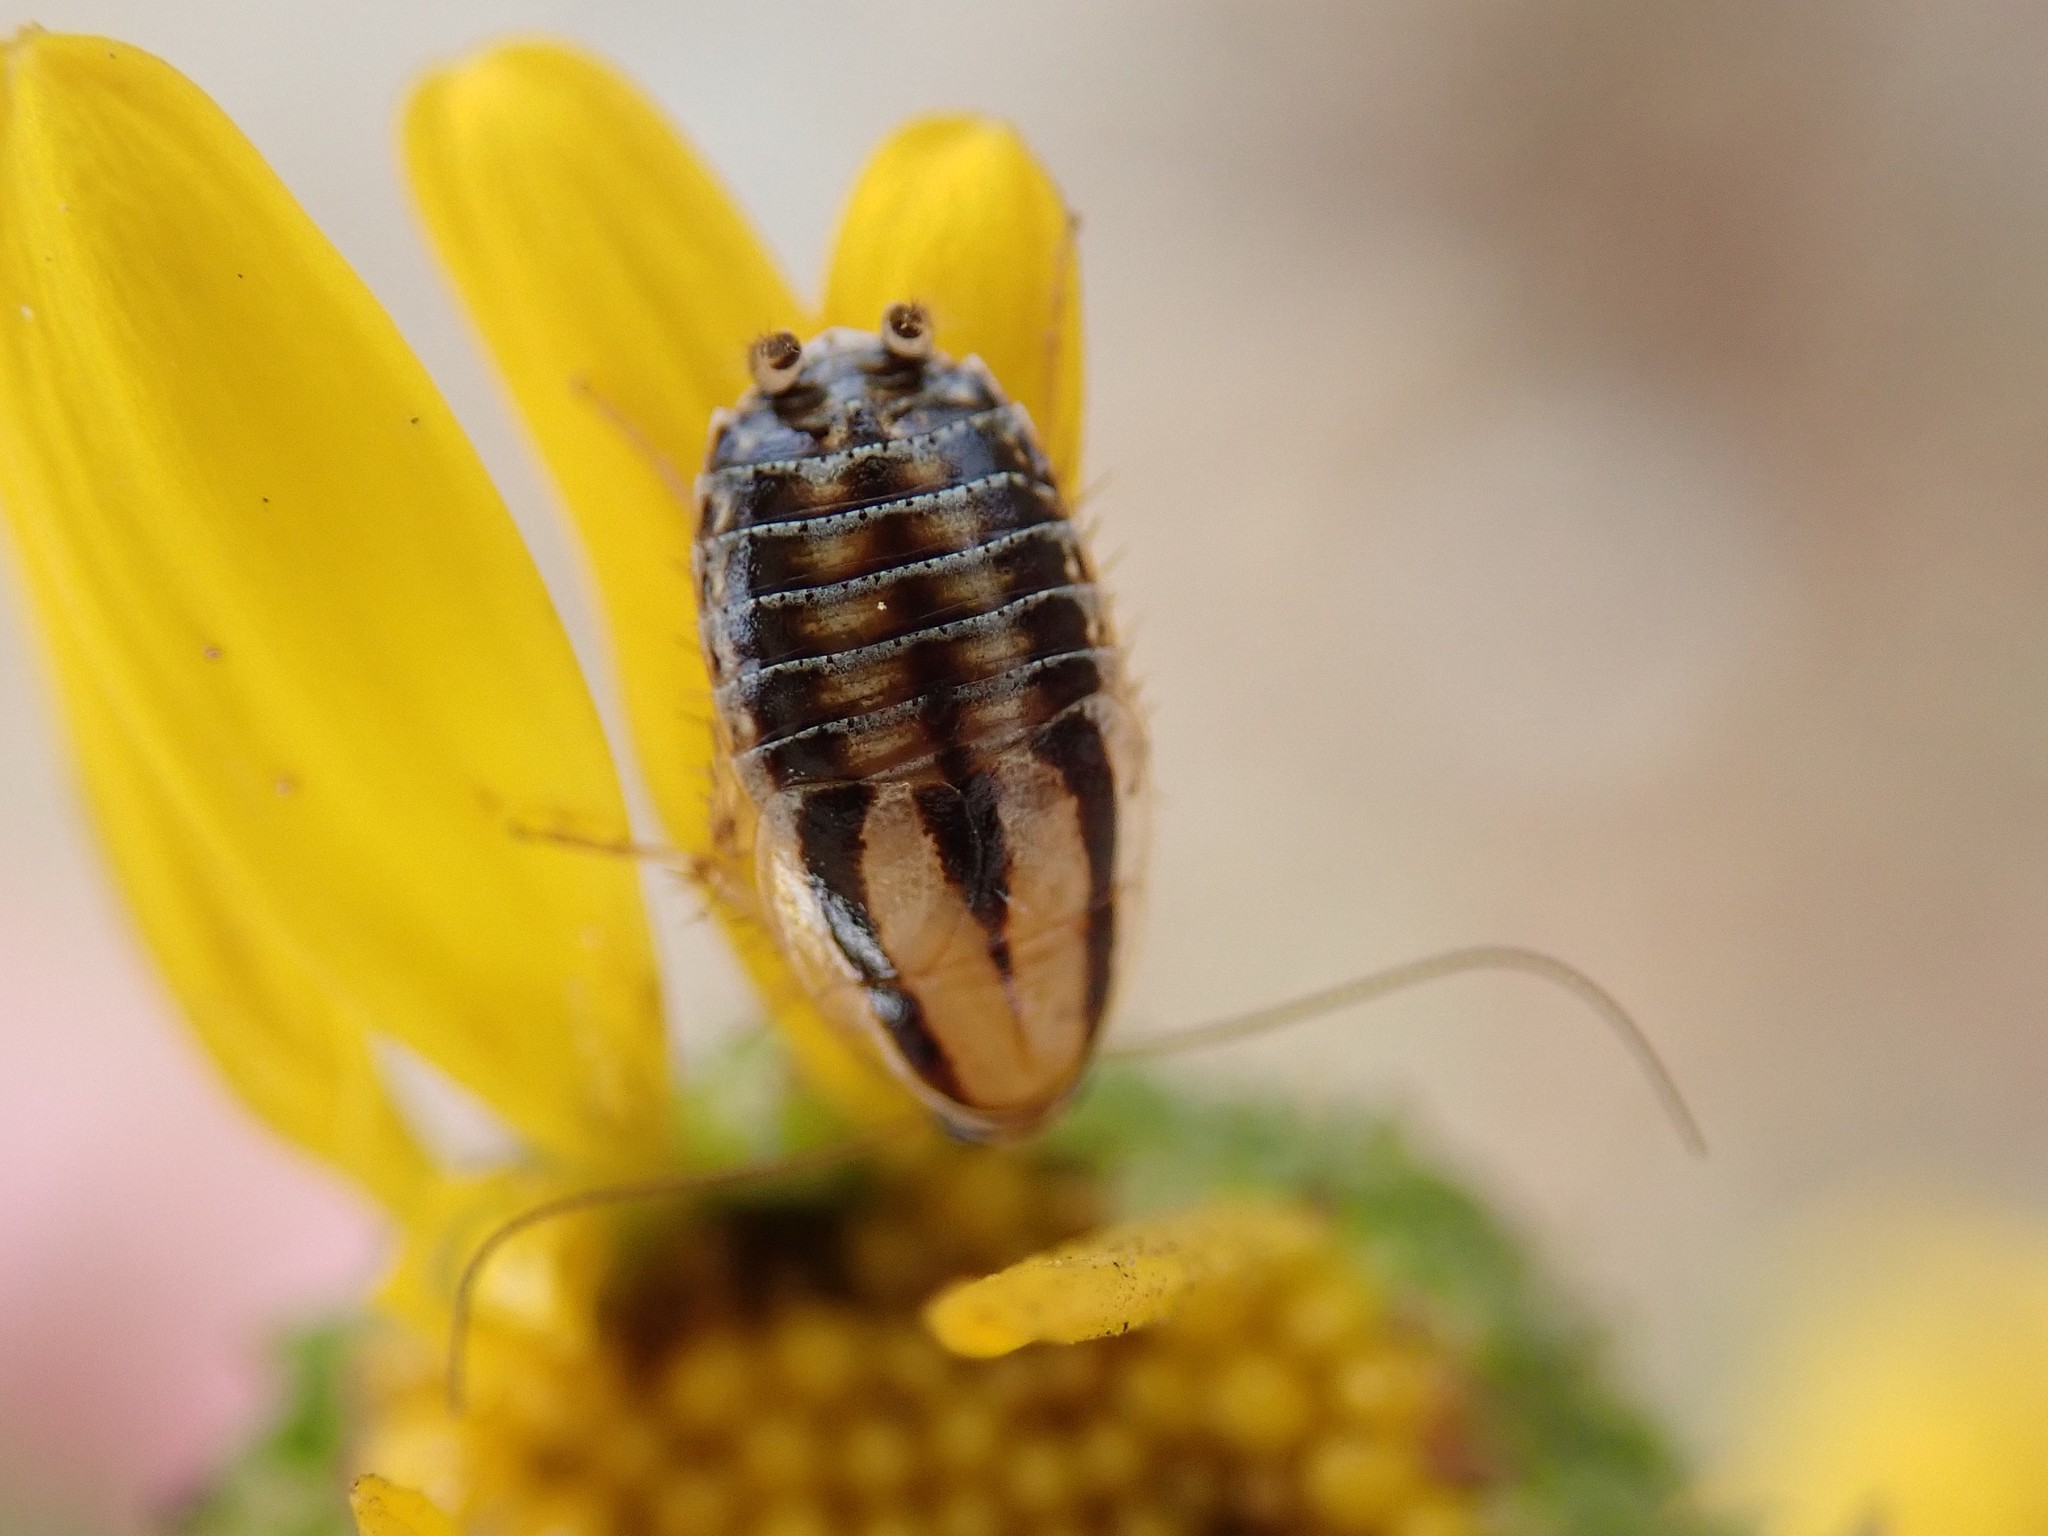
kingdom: Animalia
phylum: Arthropoda
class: Insecta
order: Blattodea
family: Ectobiidae
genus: Luridiblatta
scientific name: Luridiblatta trivittata
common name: Three-lined cockroach
